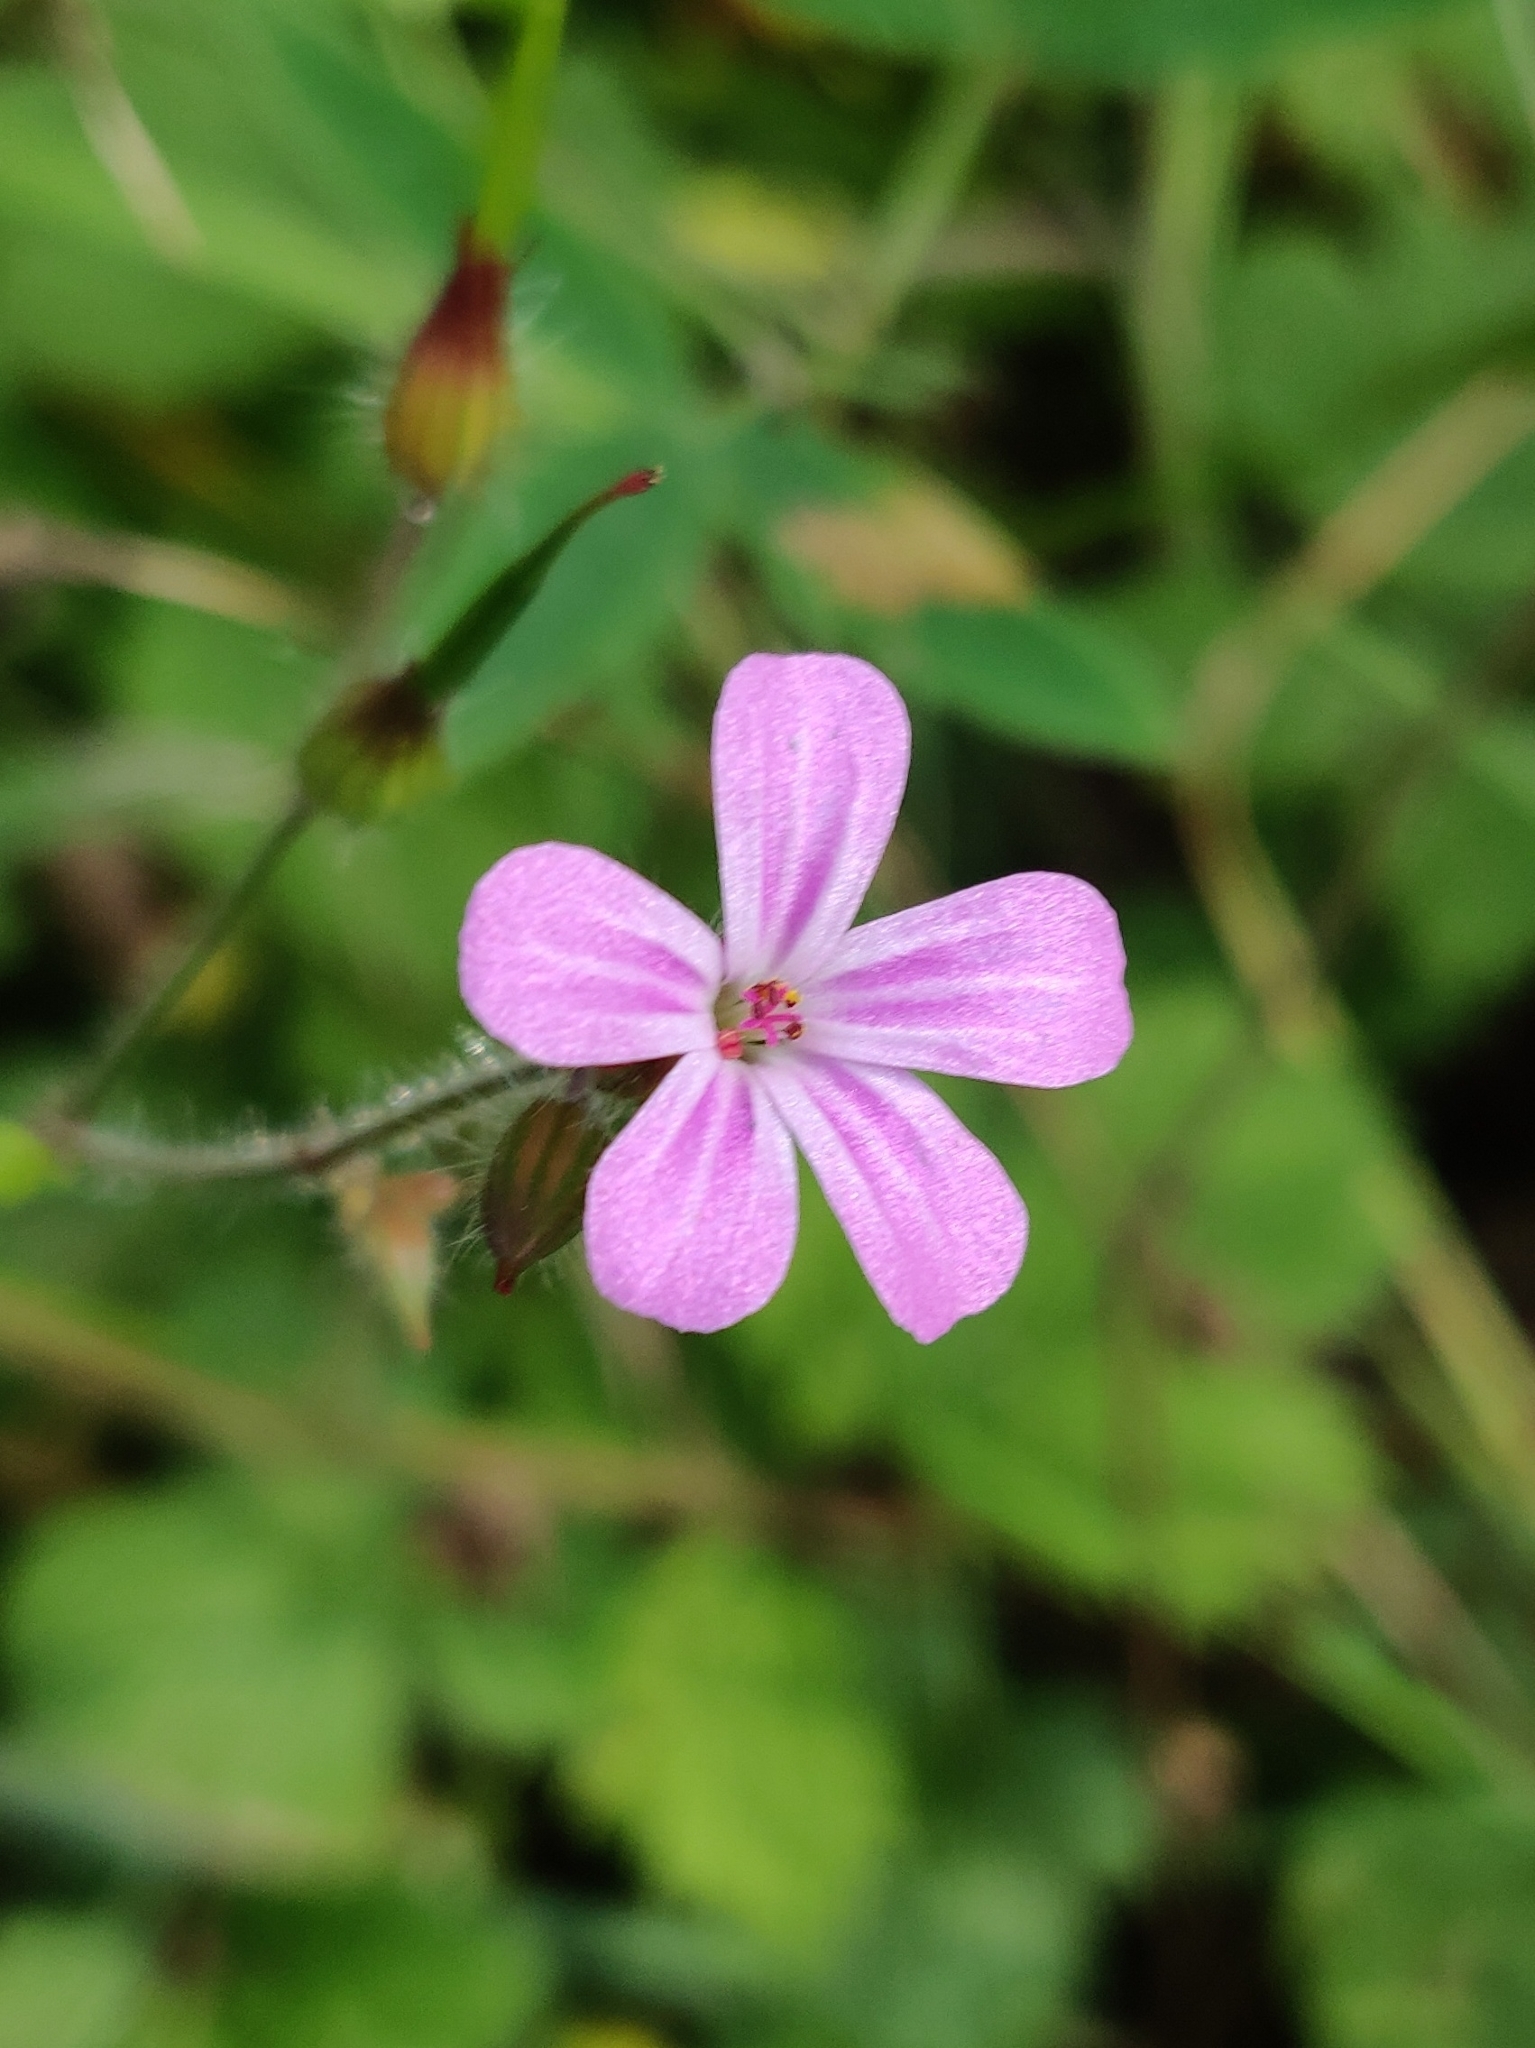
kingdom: Plantae
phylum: Tracheophyta
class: Magnoliopsida
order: Geraniales
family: Geraniaceae
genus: Geranium
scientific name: Geranium robertianum
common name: Herb-robert
